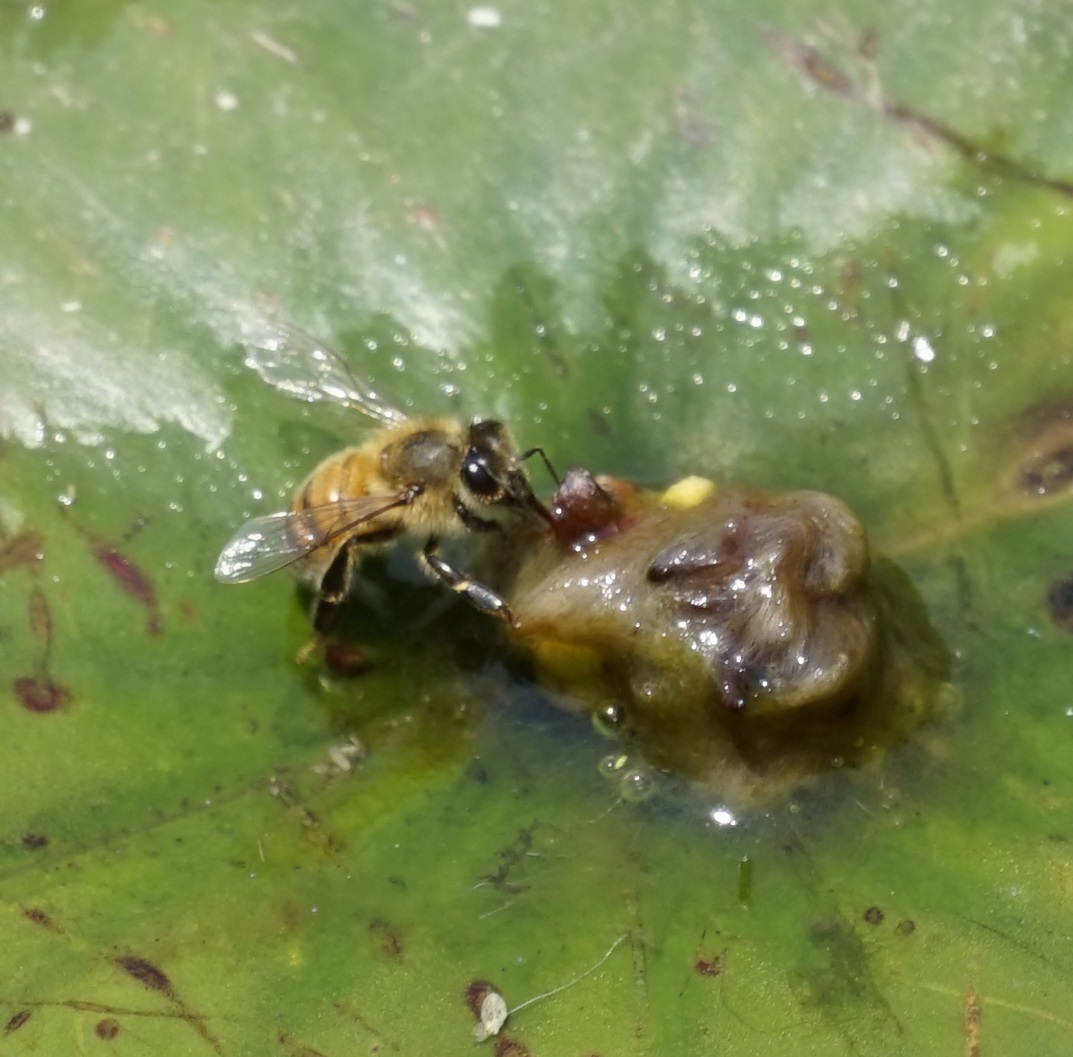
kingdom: Animalia
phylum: Arthropoda
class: Insecta
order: Hymenoptera
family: Apidae
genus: Apis
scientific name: Apis mellifera
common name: Honey bee
